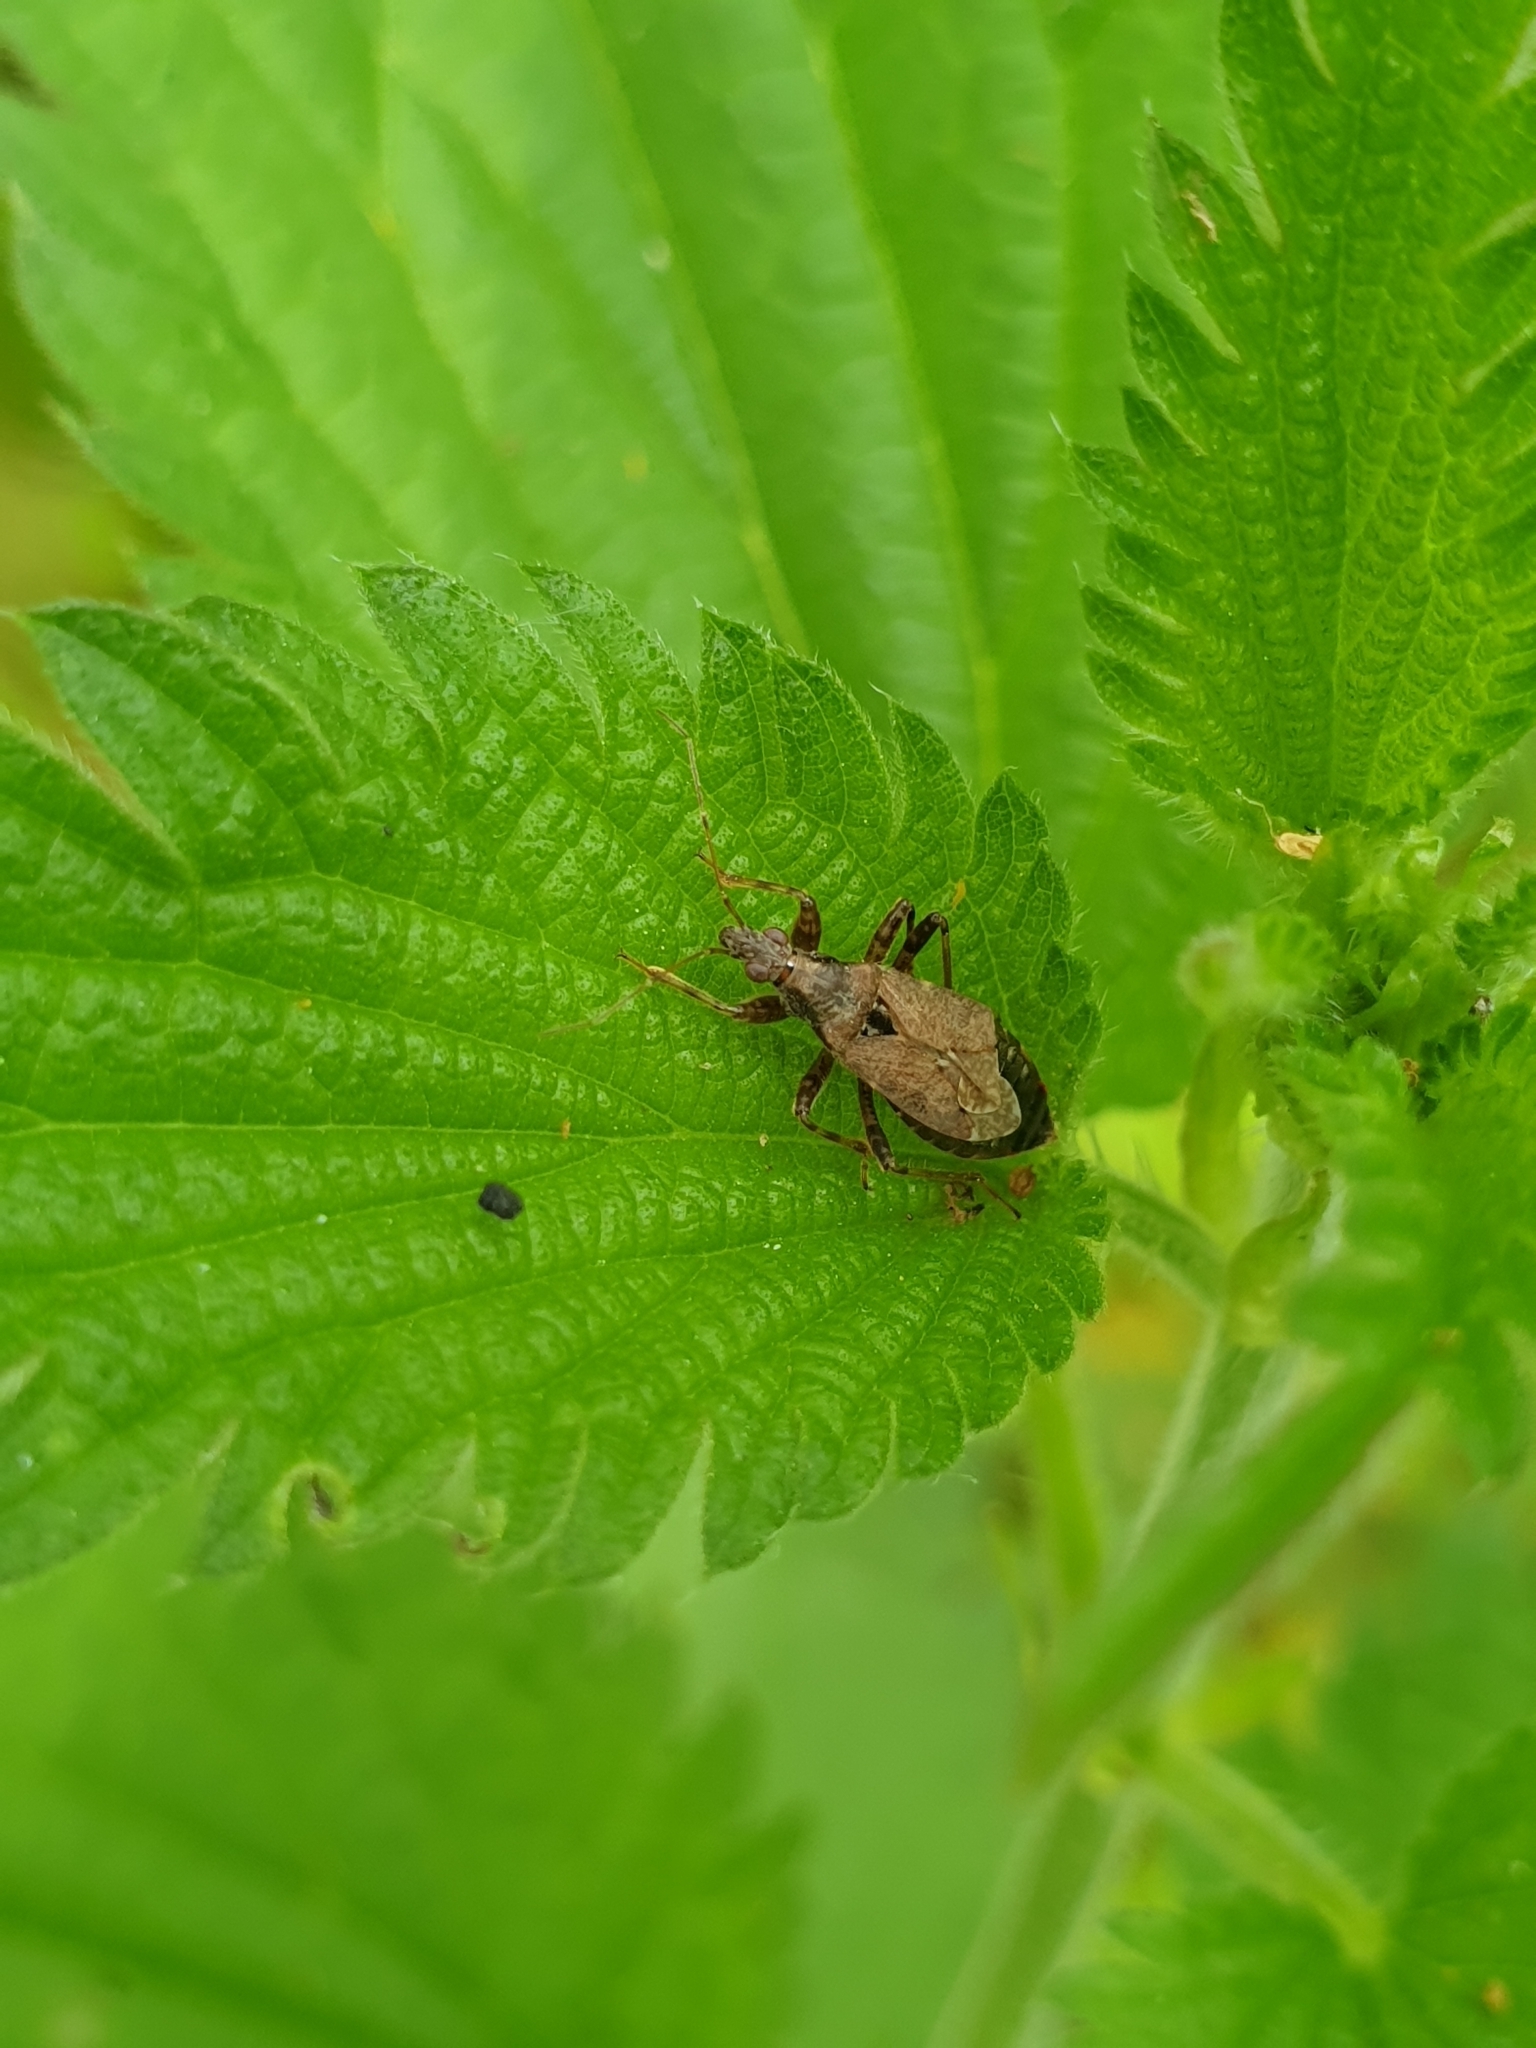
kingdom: Animalia
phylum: Arthropoda
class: Insecta
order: Hemiptera
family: Nabidae
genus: Himacerus
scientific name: Himacerus mirmicoides
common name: Ant damsel bug
